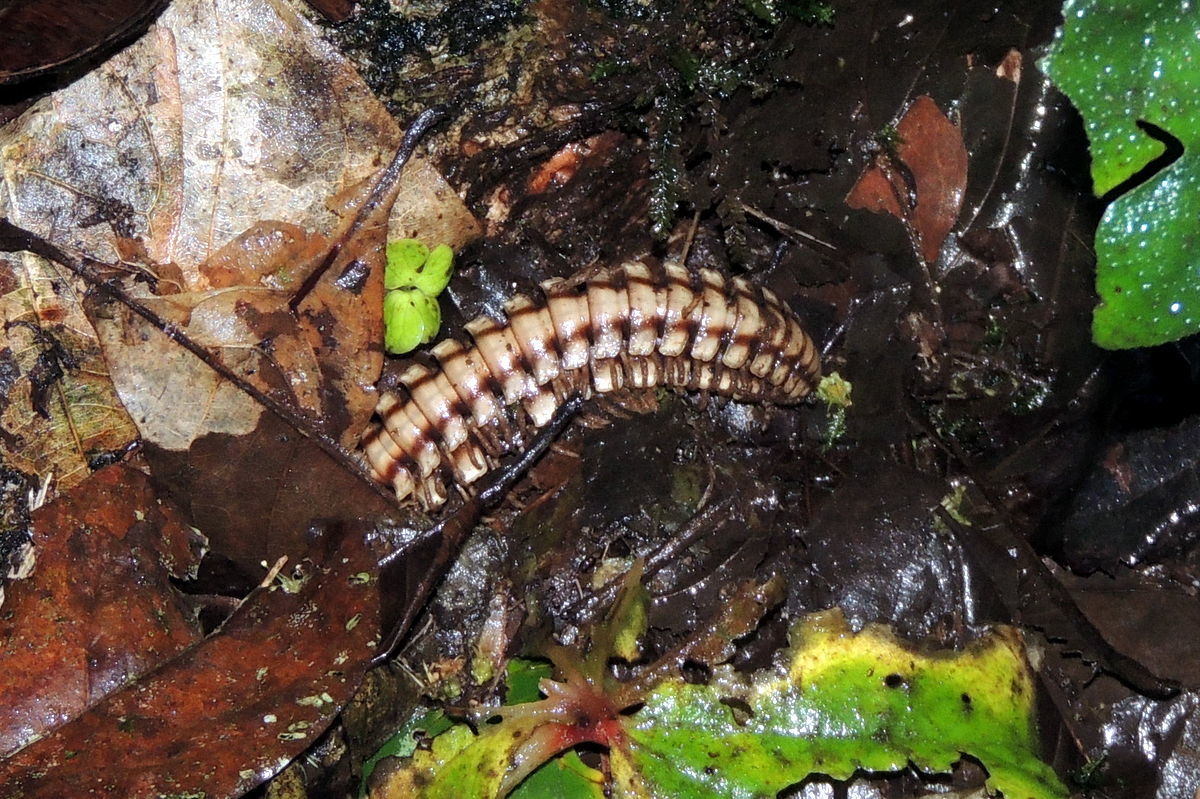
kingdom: Animalia
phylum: Arthropoda
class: Diplopoda
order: Polydesmida
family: Platyrhacidae
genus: Nyssodesmus
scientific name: Nyssodesmus python
